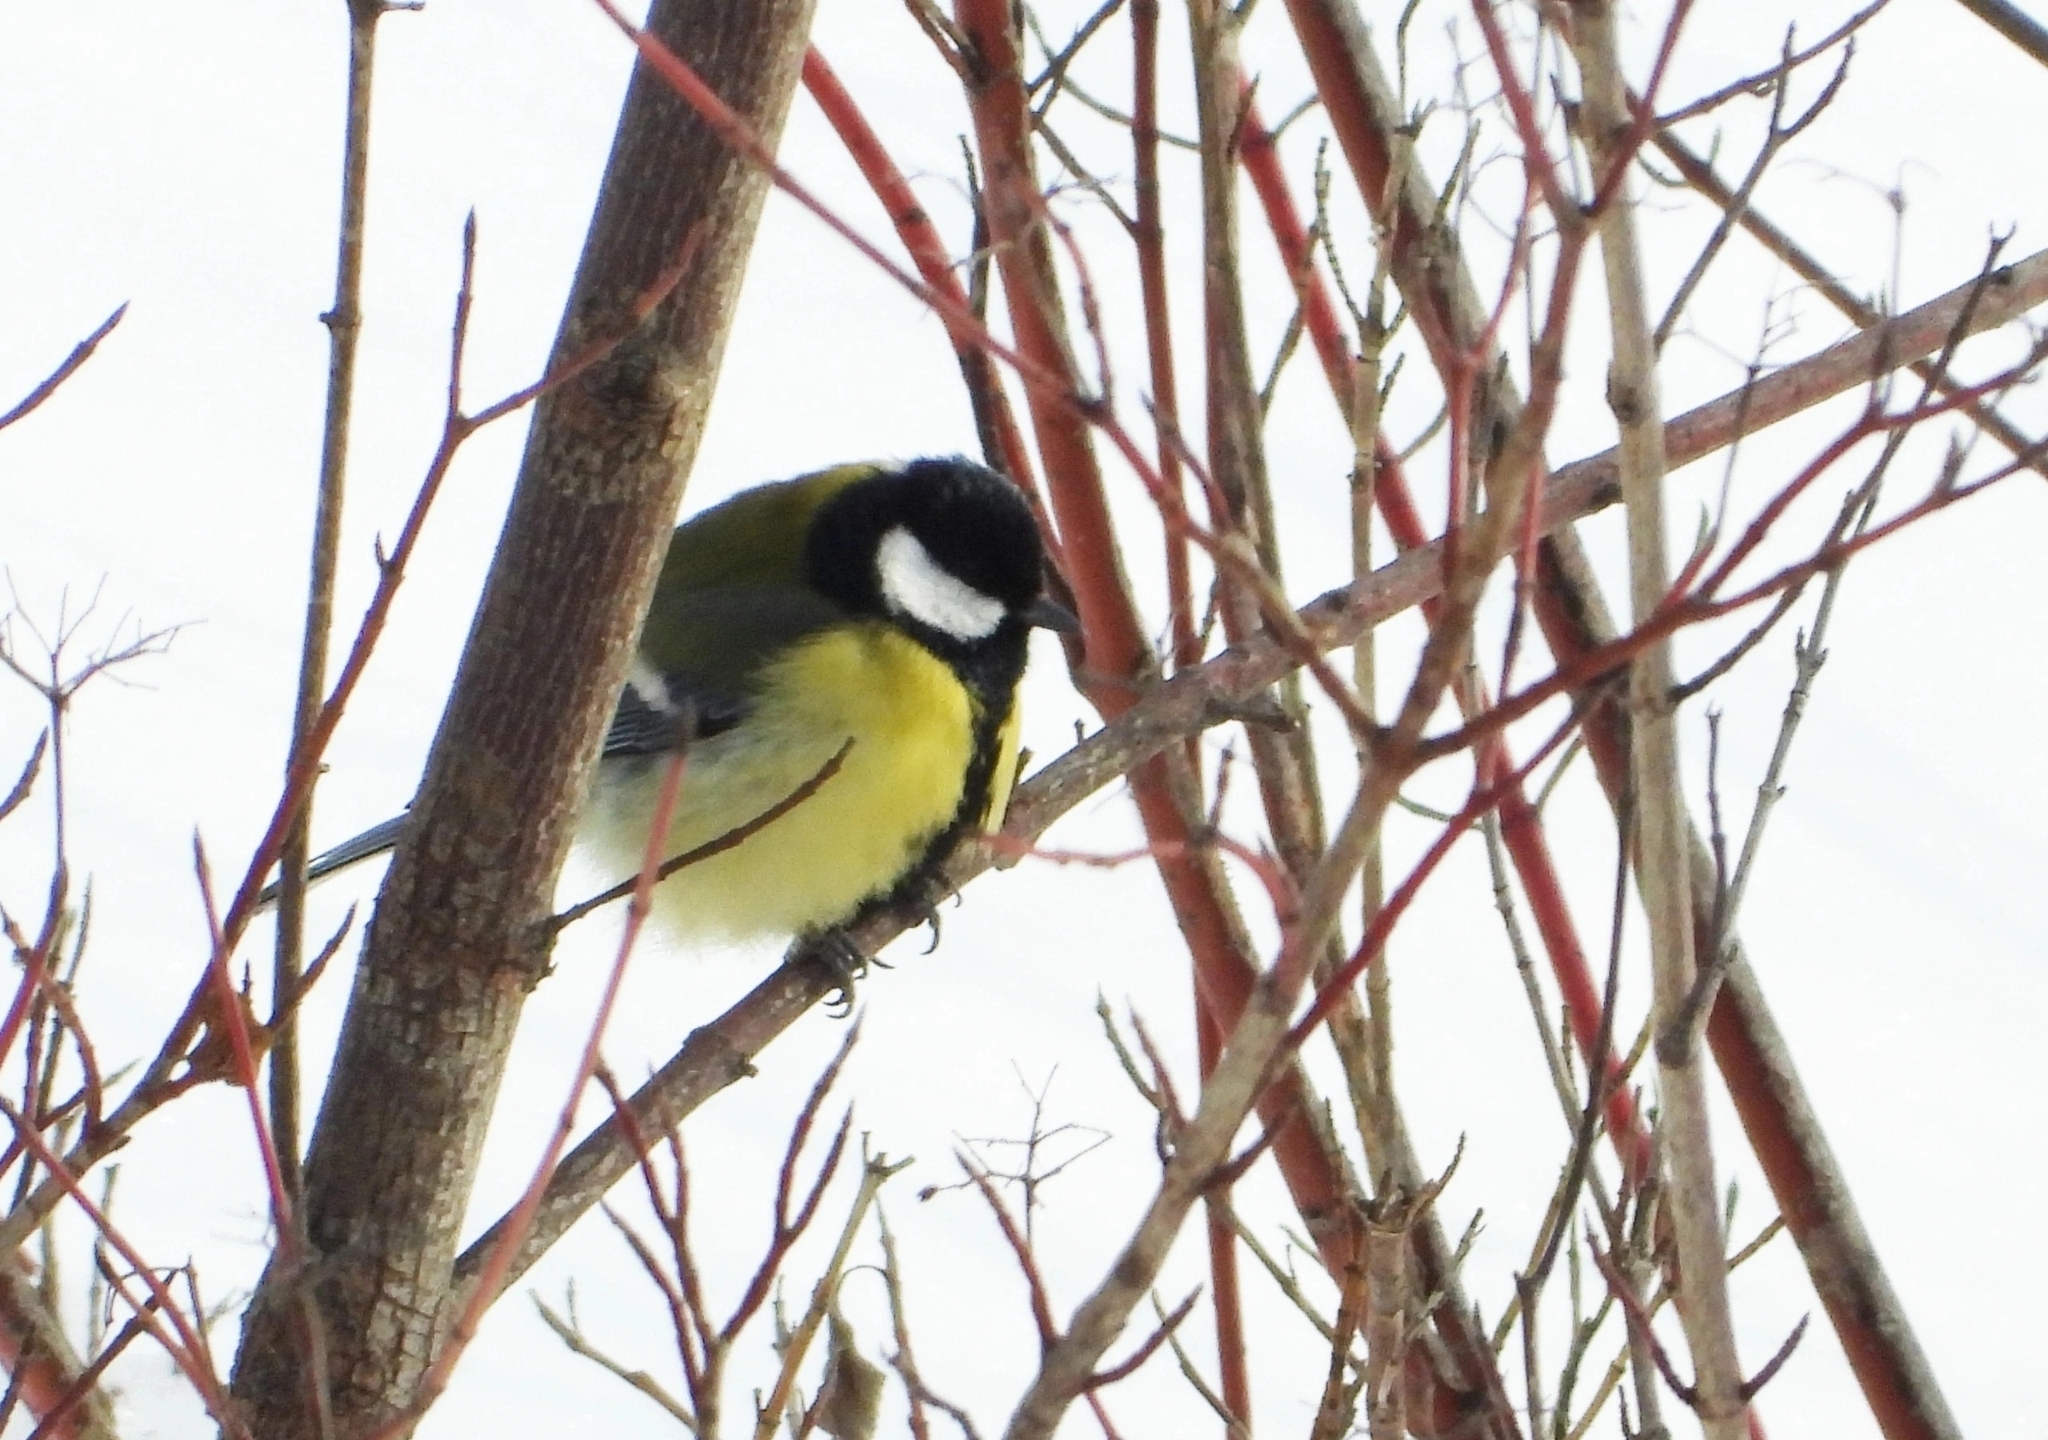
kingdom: Animalia
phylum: Chordata
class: Aves
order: Passeriformes
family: Paridae
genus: Parus
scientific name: Parus major
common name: Great tit
